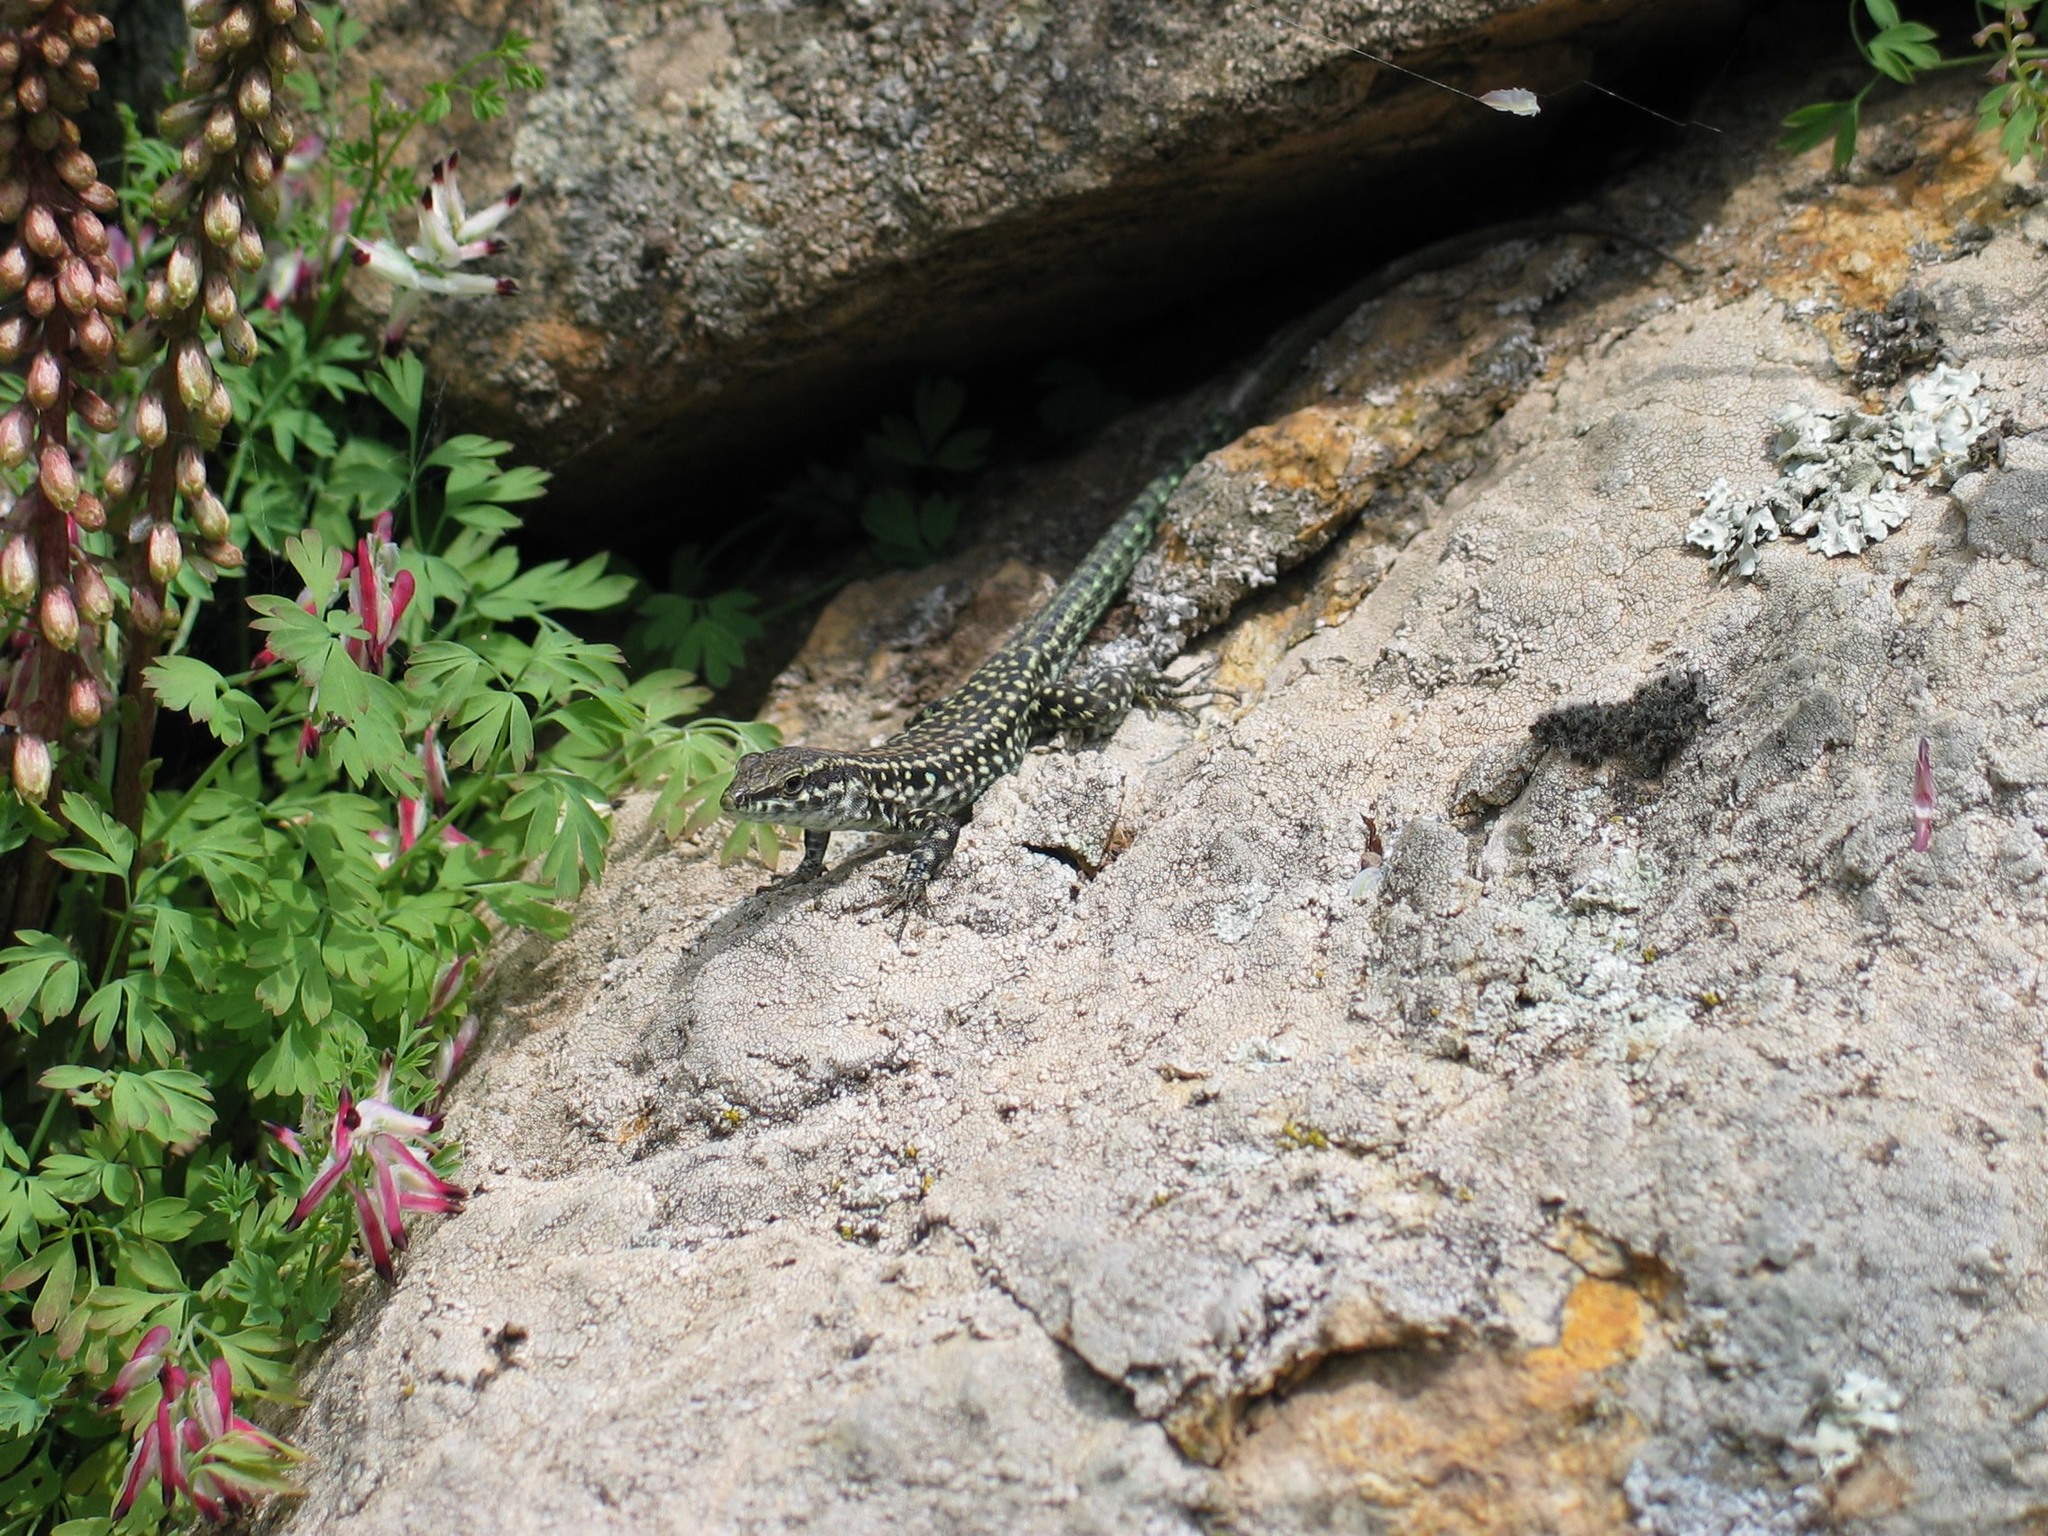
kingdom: Animalia
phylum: Chordata
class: Squamata
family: Lacertidae
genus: Podarcis
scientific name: Podarcis tiliguerta
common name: Tyrrhenian wall lizard
